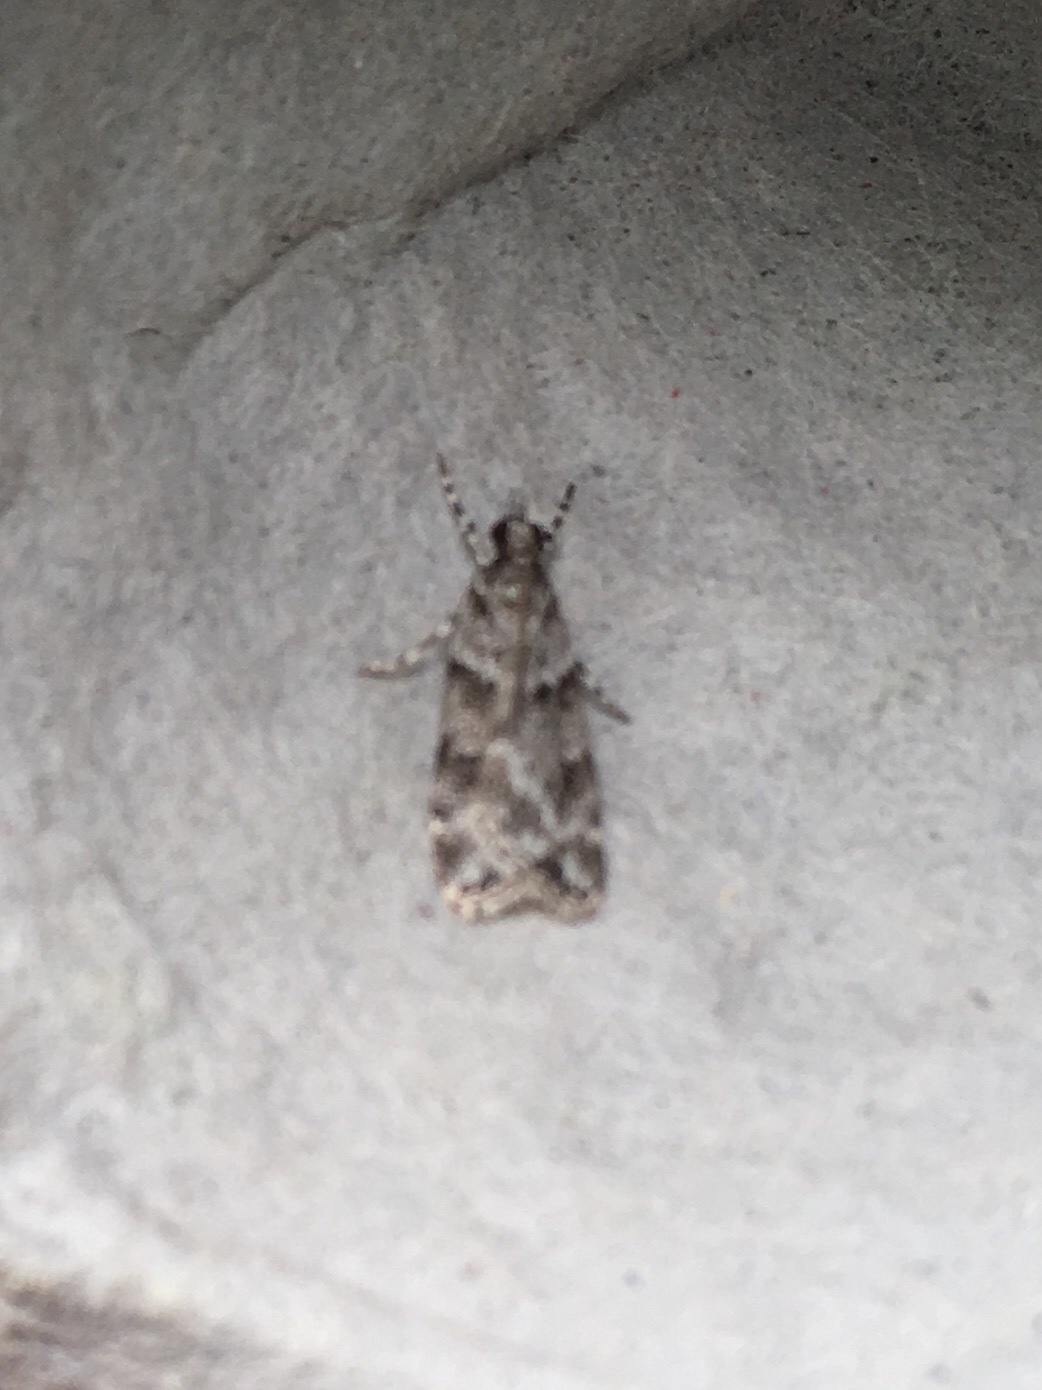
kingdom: Animalia
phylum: Arthropoda
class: Insecta
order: Lepidoptera
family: Crambidae
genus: Scoparia
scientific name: Scoparia biplagialis
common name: Double-striped scoparia moth
